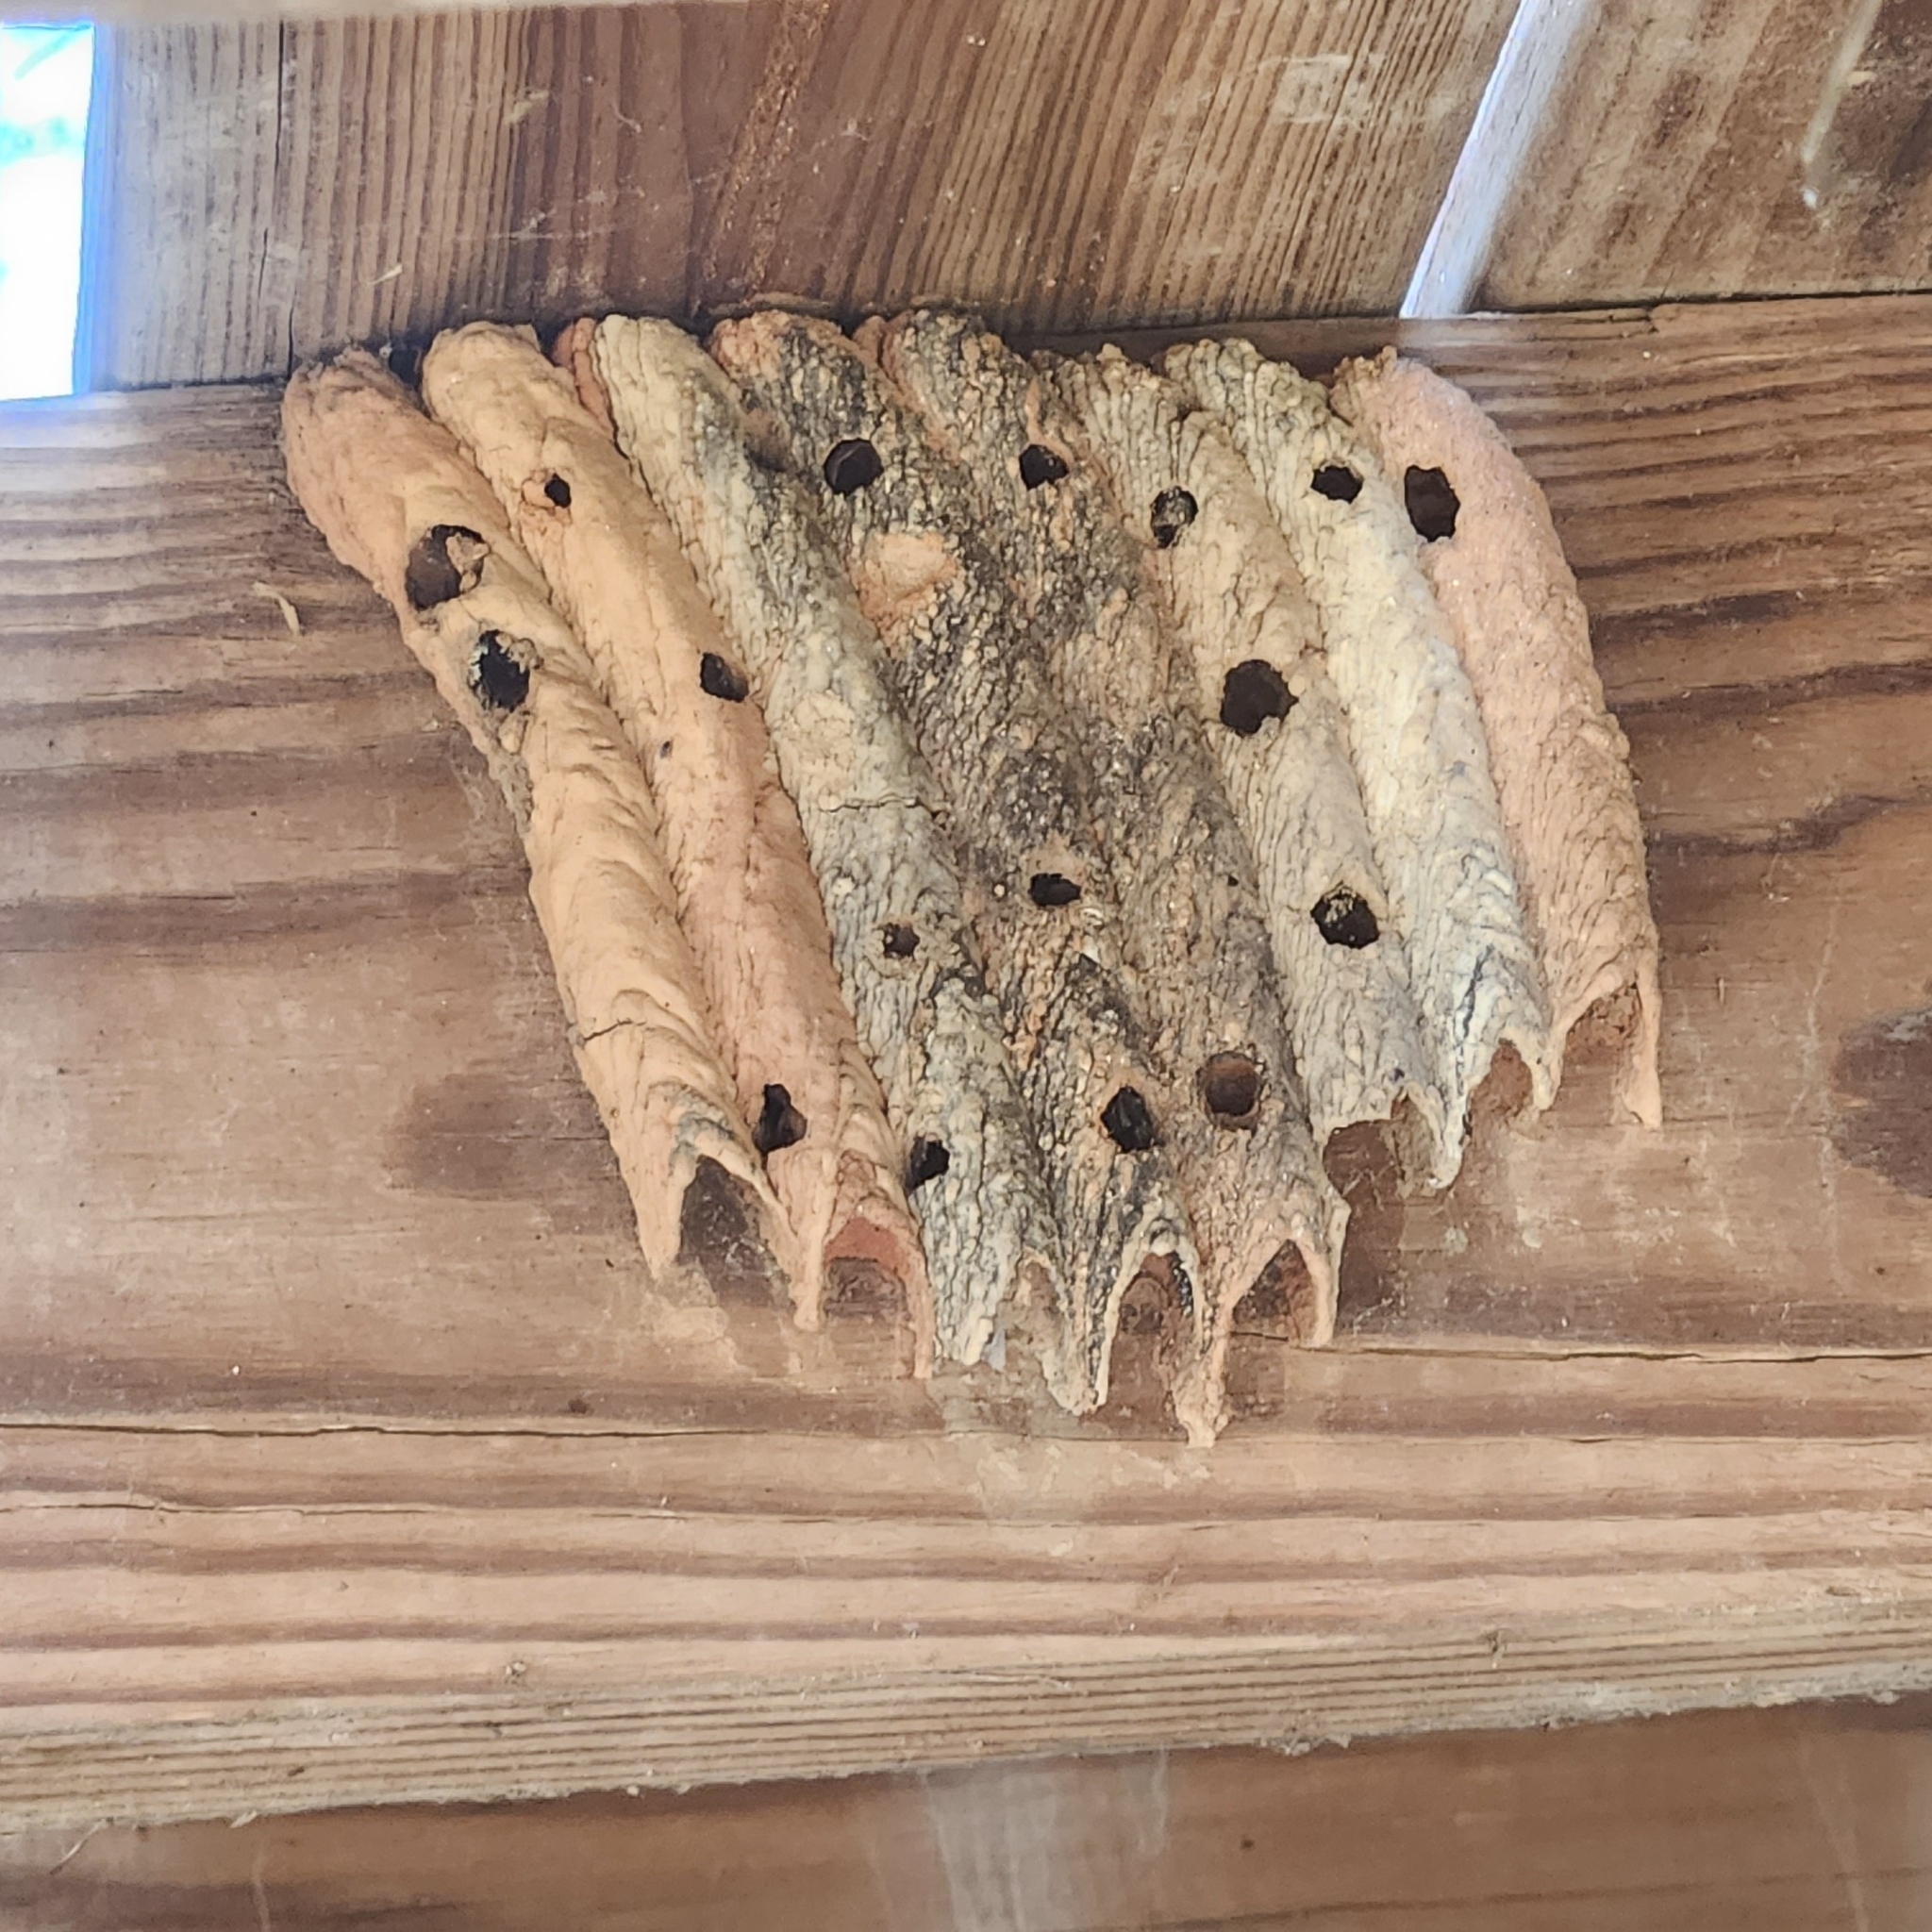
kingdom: Animalia
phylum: Arthropoda
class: Insecta
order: Hymenoptera
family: Crabronidae
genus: Trypoxylon
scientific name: Trypoxylon politum
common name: Organ-pipe mud-dauber wasp
